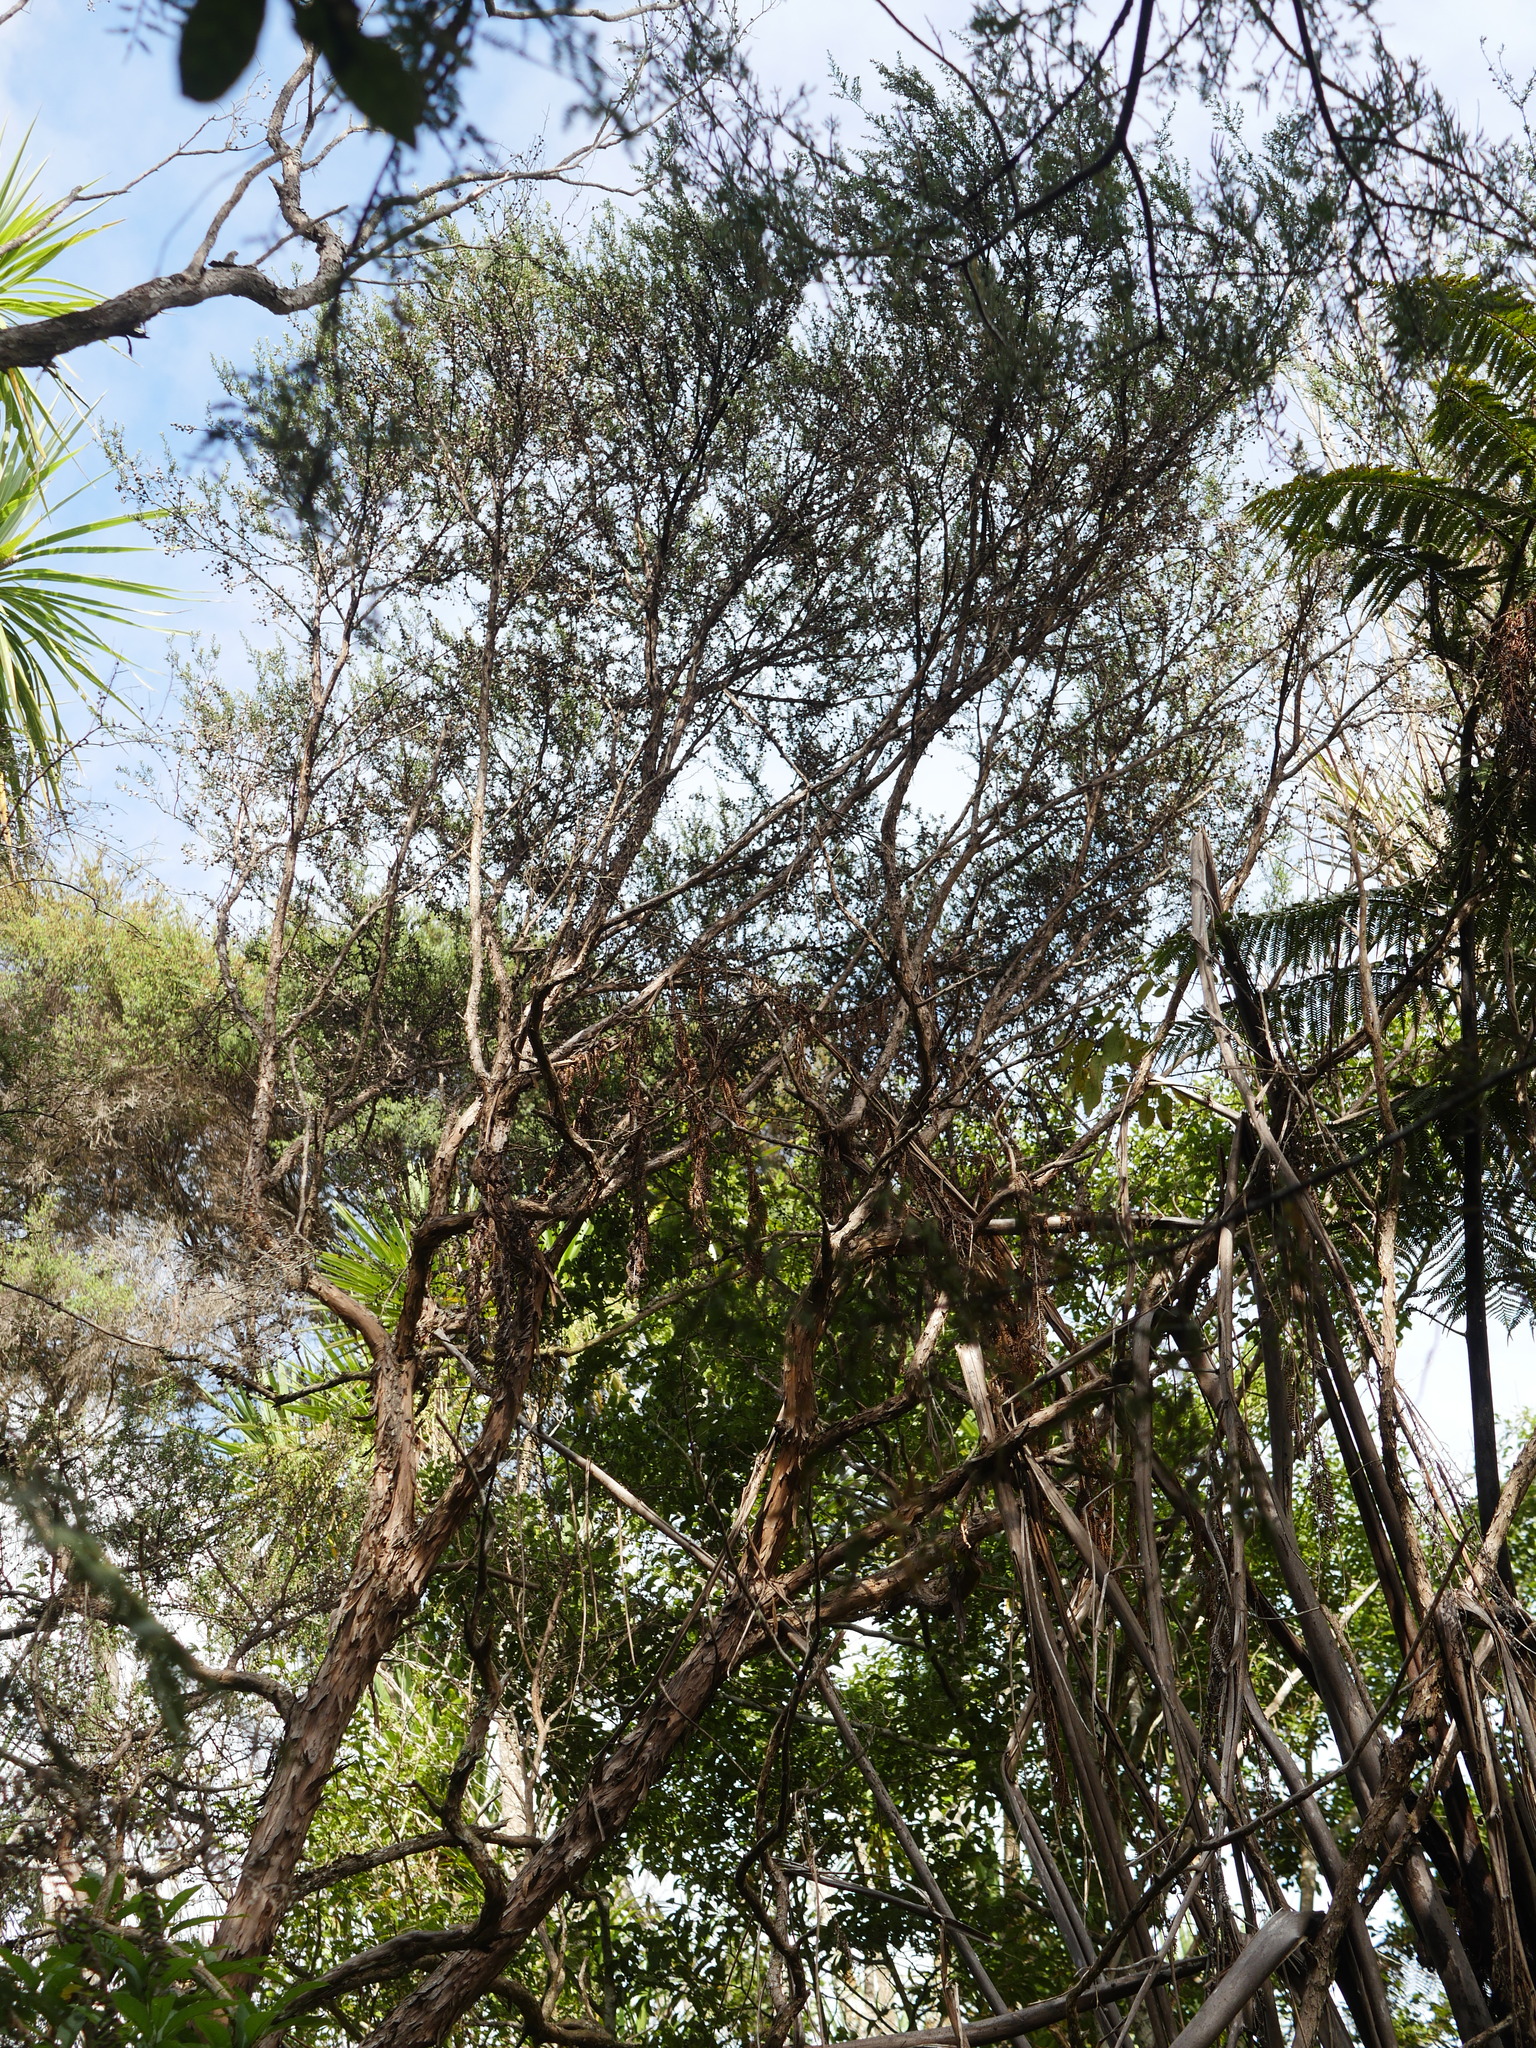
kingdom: Plantae
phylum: Tracheophyta
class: Magnoliopsida
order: Myrtales
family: Myrtaceae
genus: Leptospermum
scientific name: Leptospermum scoparium
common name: Broom tea-tree
